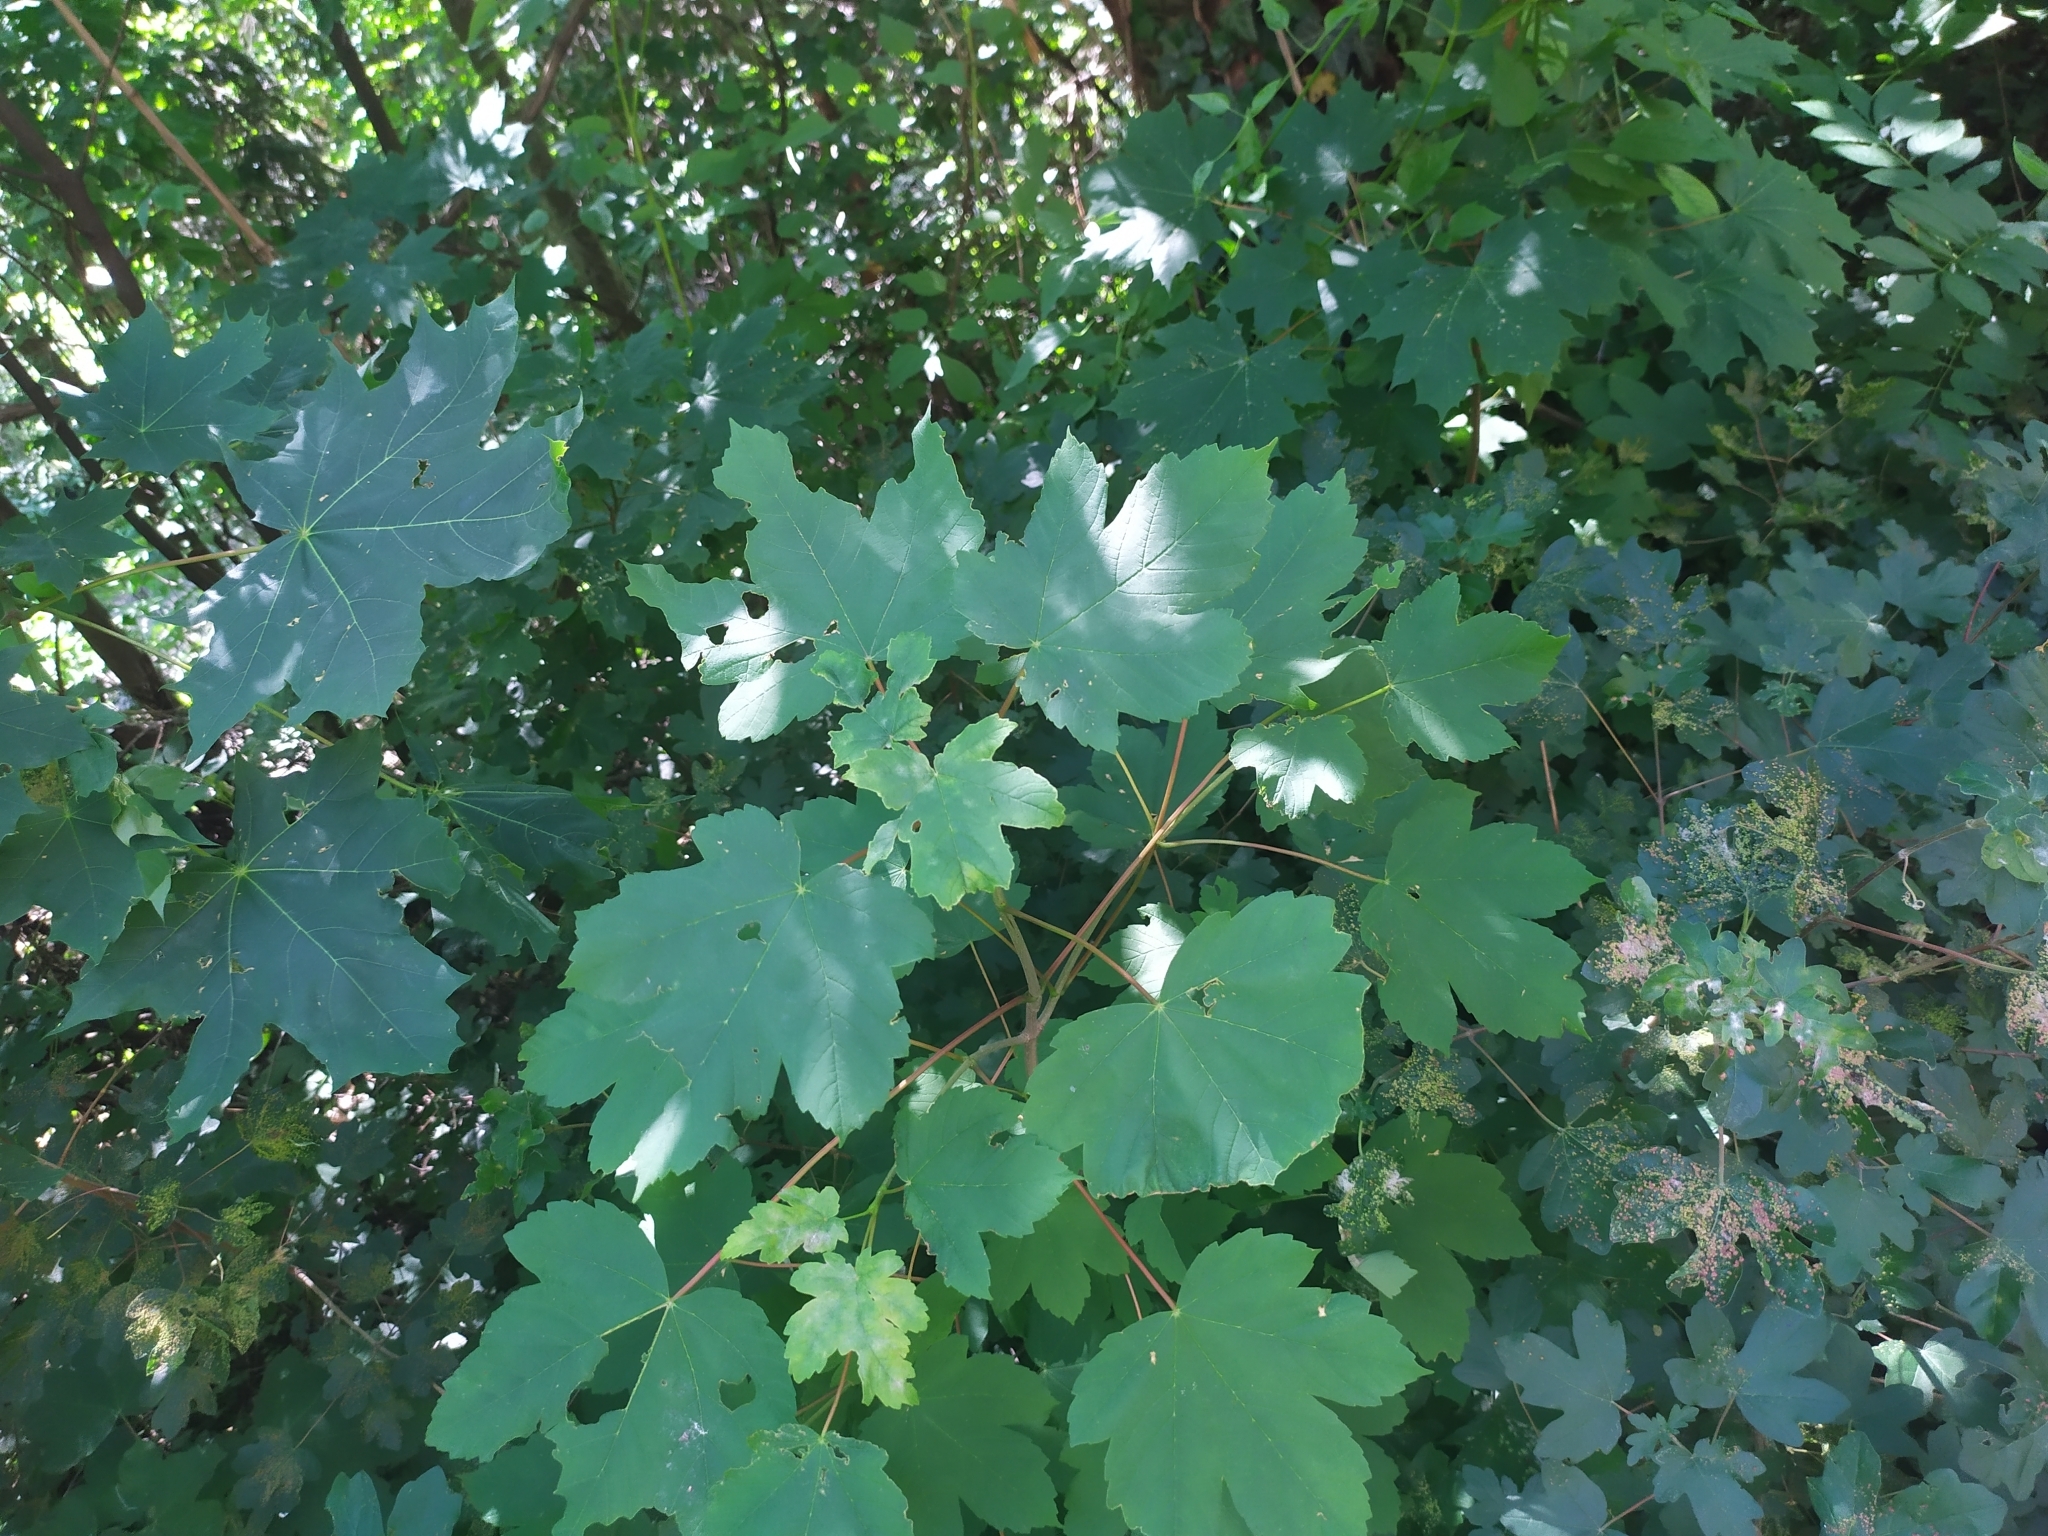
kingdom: Plantae
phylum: Tracheophyta
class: Magnoliopsida
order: Sapindales
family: Sapindaceae
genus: Acer
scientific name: Acer pseudoplatanus
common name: Sycamore
